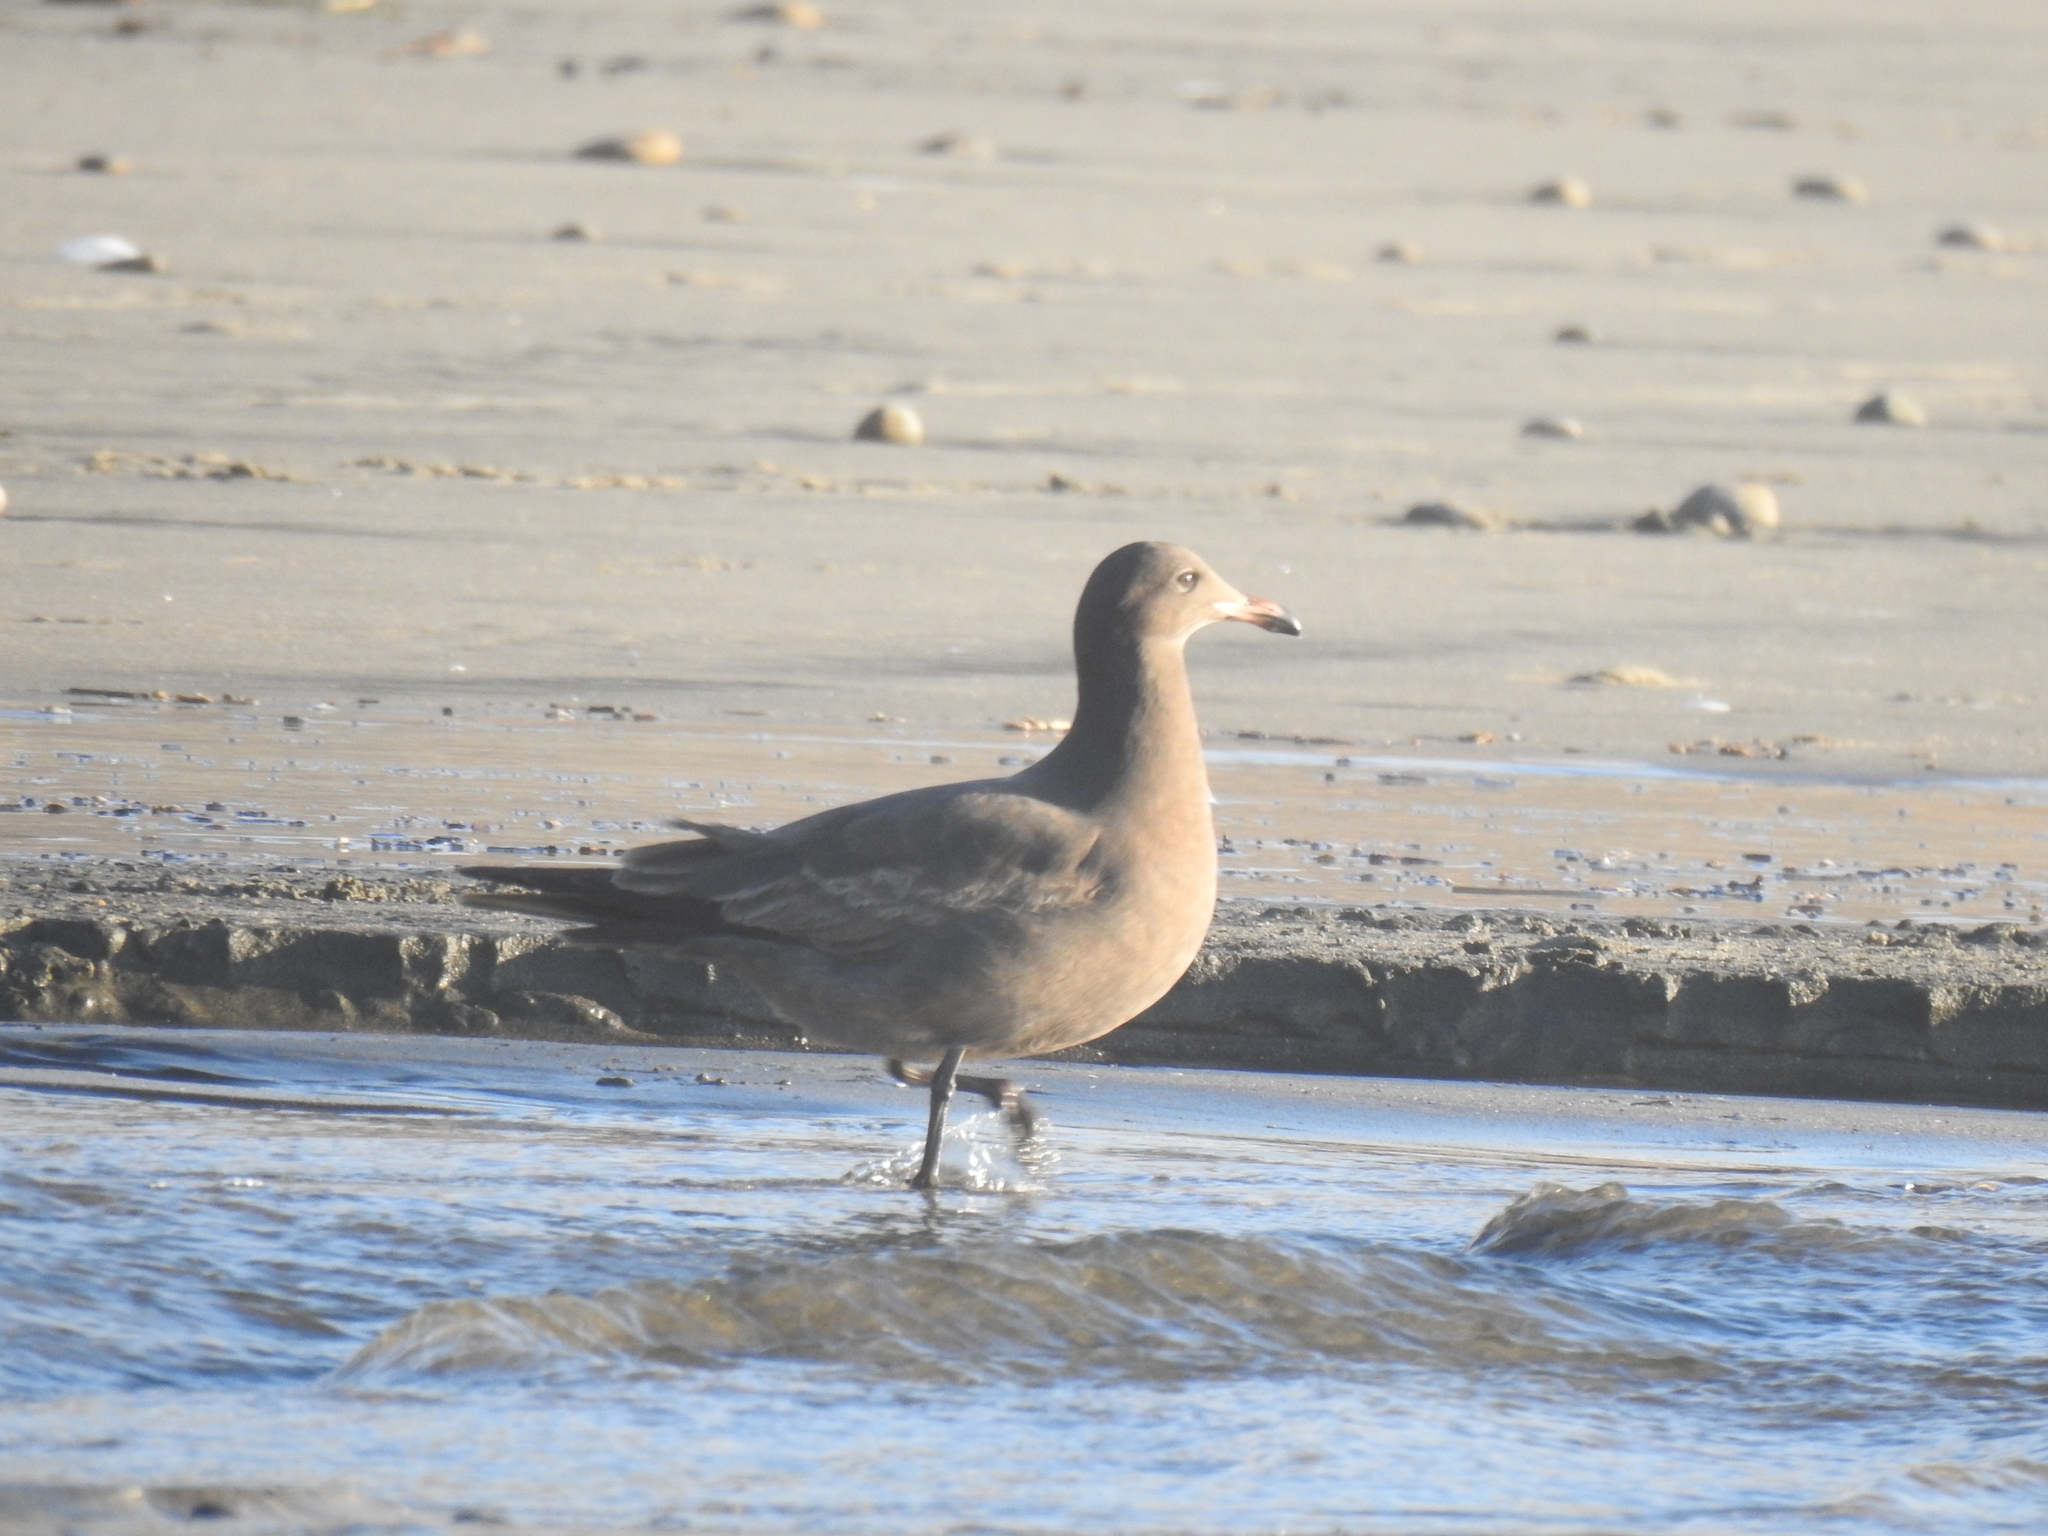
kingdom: Animalia
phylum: Chordata
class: Aves
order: Charadriiformes
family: Laridae
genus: Larus
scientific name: Larus heermanni
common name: Heermann's gull
